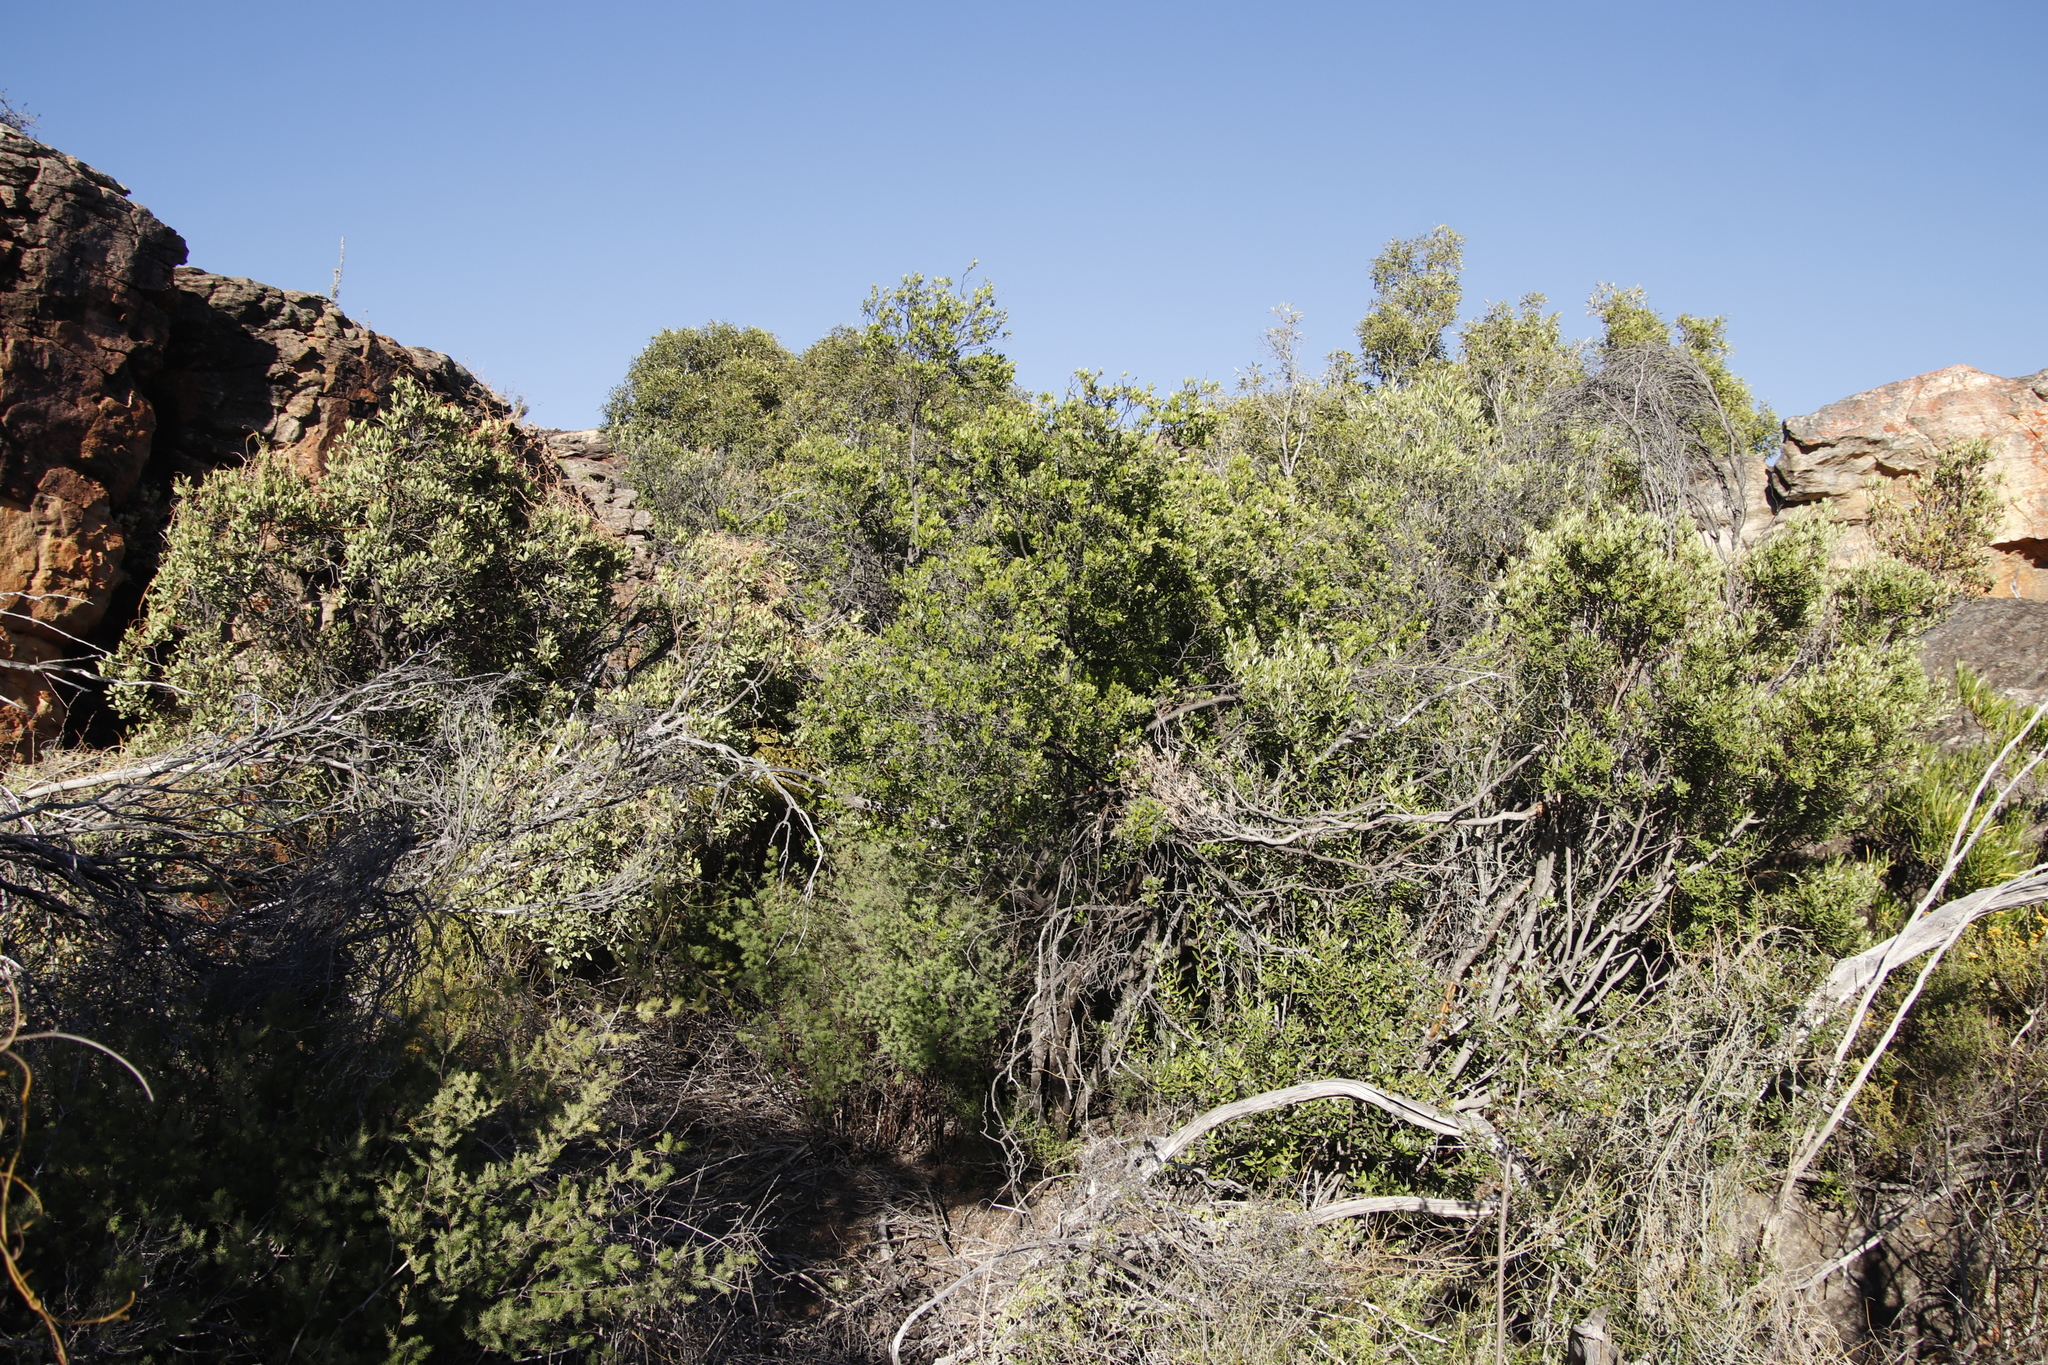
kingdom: Plantae
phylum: Tracheophyta
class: Magnoliopsida
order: Sapindales
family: Anacardiaceae
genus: Searsia
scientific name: Searsia undulata
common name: Namaqua kunibush
